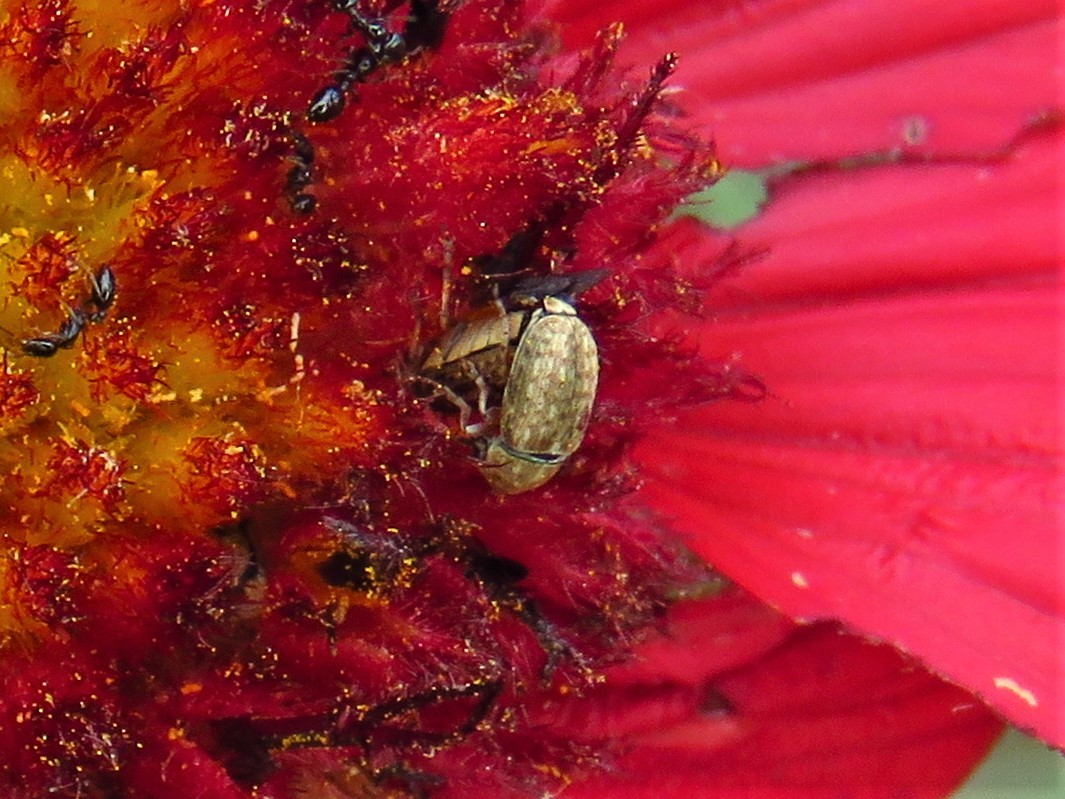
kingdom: Animalia
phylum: Arthropoda
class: Insecta
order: Coleoptera
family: Anthribidae
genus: Trigonorhinus
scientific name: Trigonorhinus limbatus
